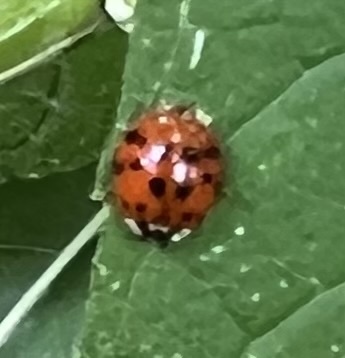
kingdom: Animalia
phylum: Arthropoda
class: Insecta
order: Coleoptera
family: Coccinellidae
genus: Harmonia
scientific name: Harmonia axyridis
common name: Harlequin ladybird
